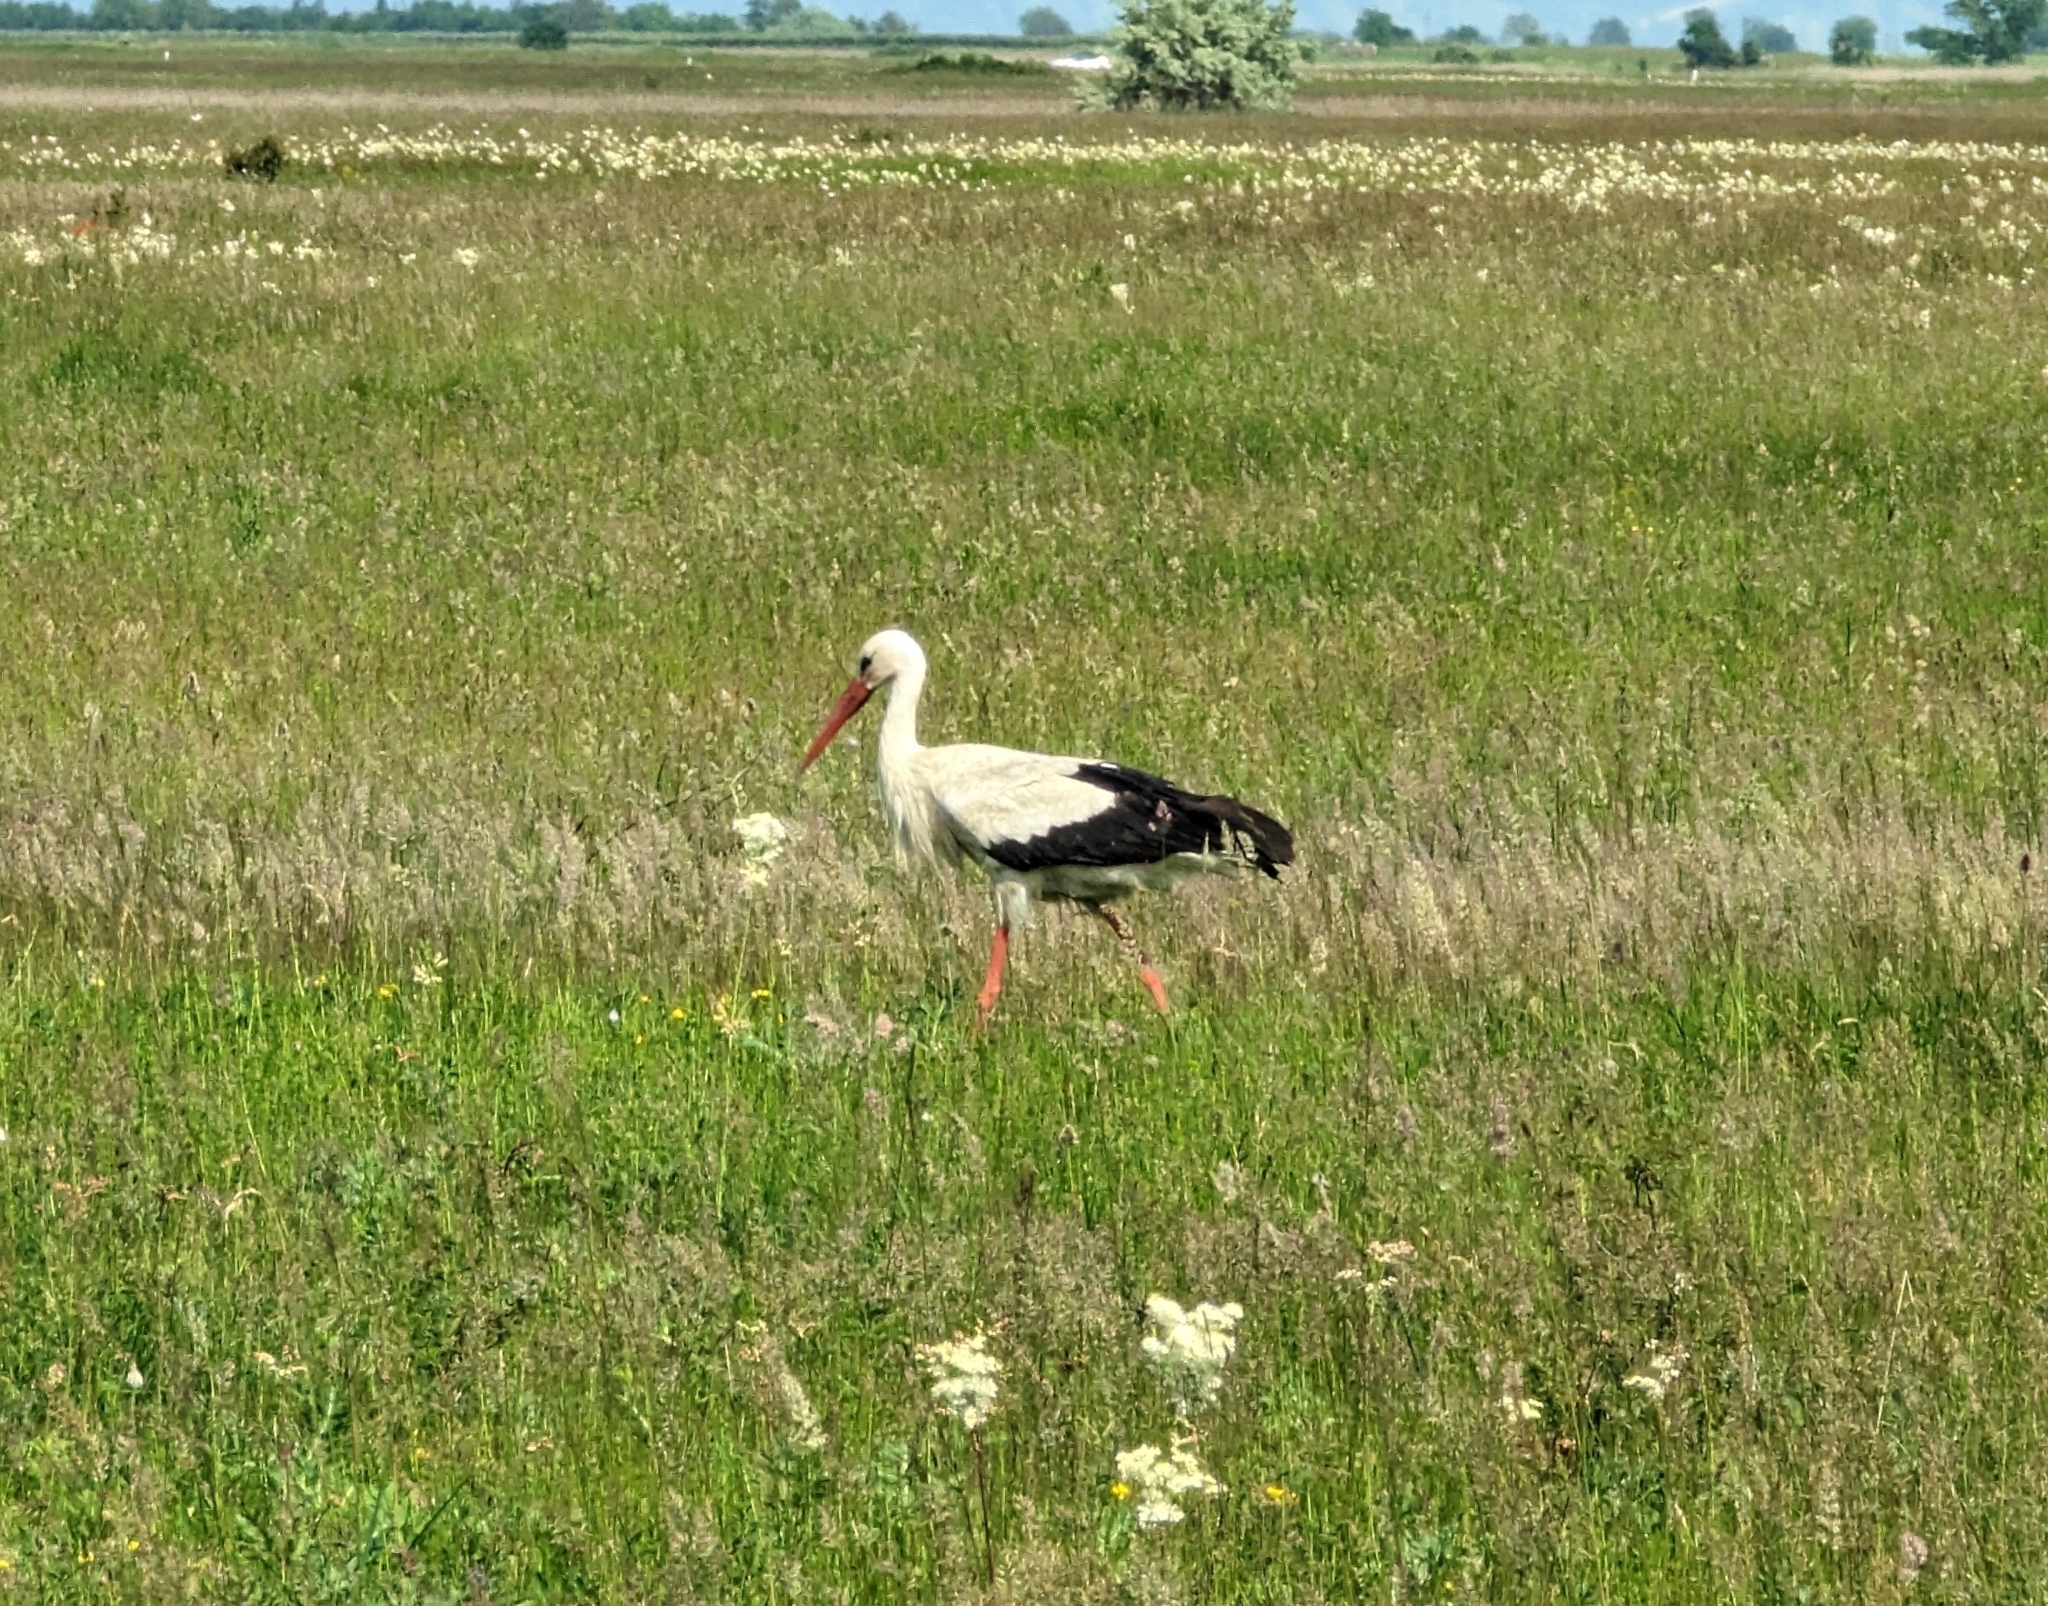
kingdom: Animalia
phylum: Chordata
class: Aves
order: Ciconiiformes
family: Ciconiidae
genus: Ciconia
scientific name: Ciconia ciconia
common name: White stork
